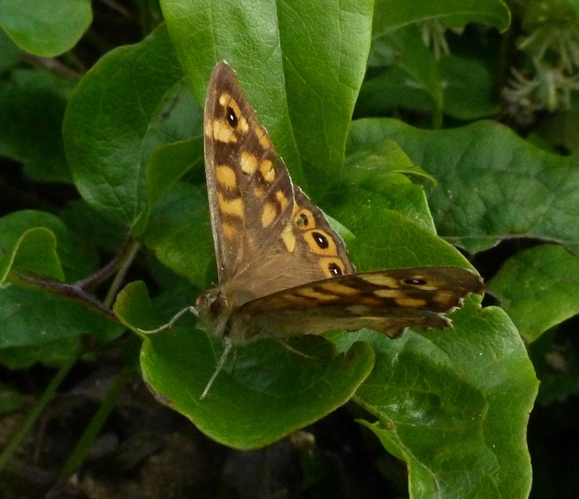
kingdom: Animalia
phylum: Arthropoda
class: Insecta
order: Lepidoptera
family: Nymphalidae
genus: Pararge
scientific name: Pararge aegeria
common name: Speckled wood
